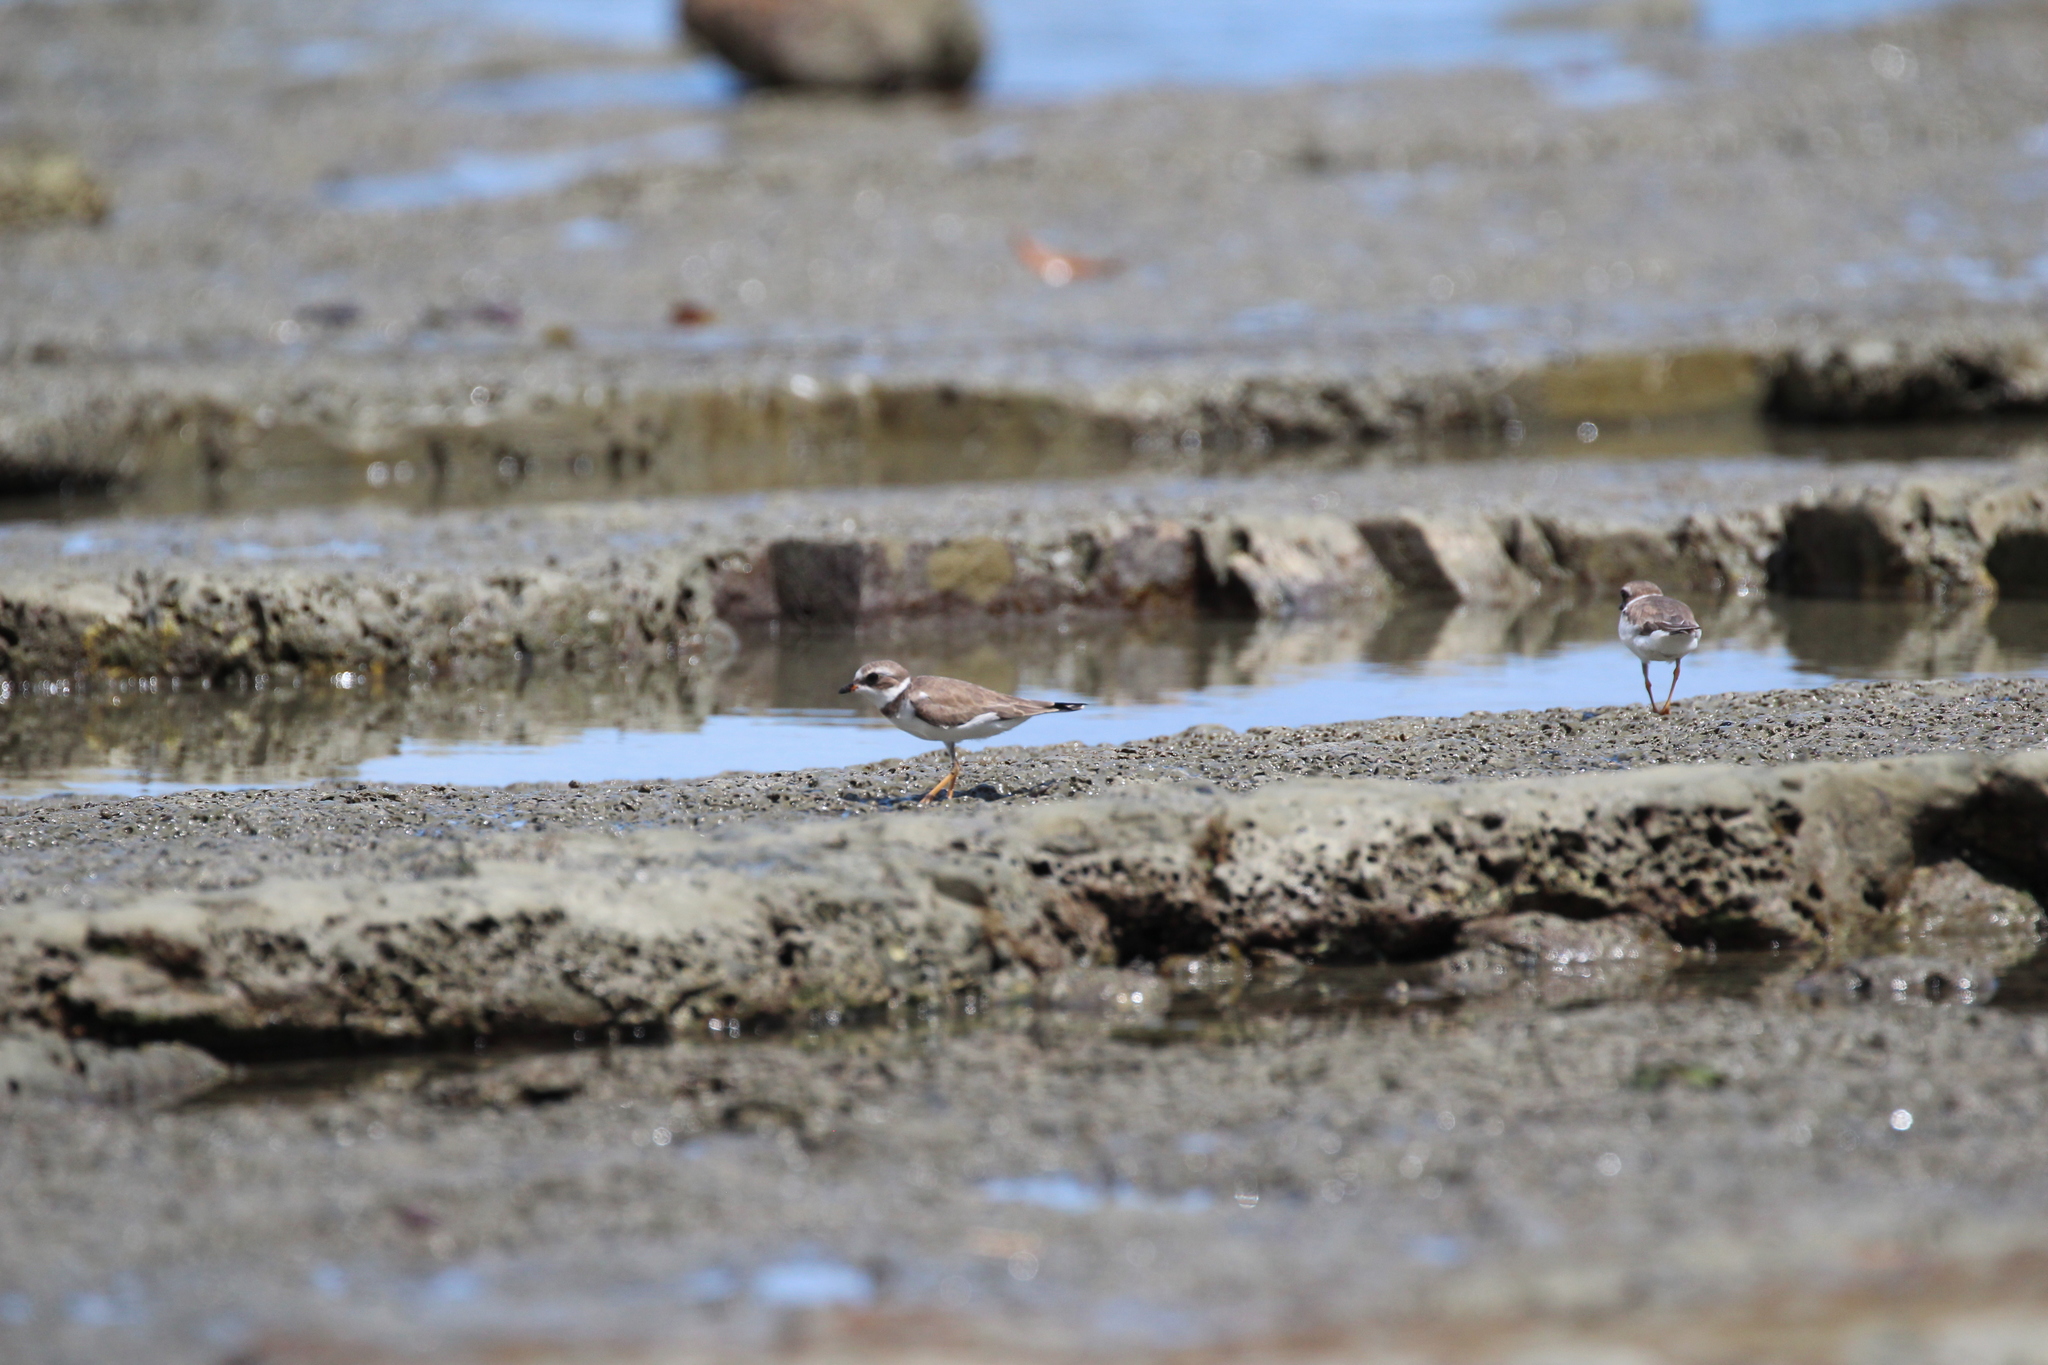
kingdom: Animalia
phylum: Chordata
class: Aves
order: Charadriiformes
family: Charadriidae
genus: Charadrius
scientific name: Charadrius semipalmatus
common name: Semipalmated plover
